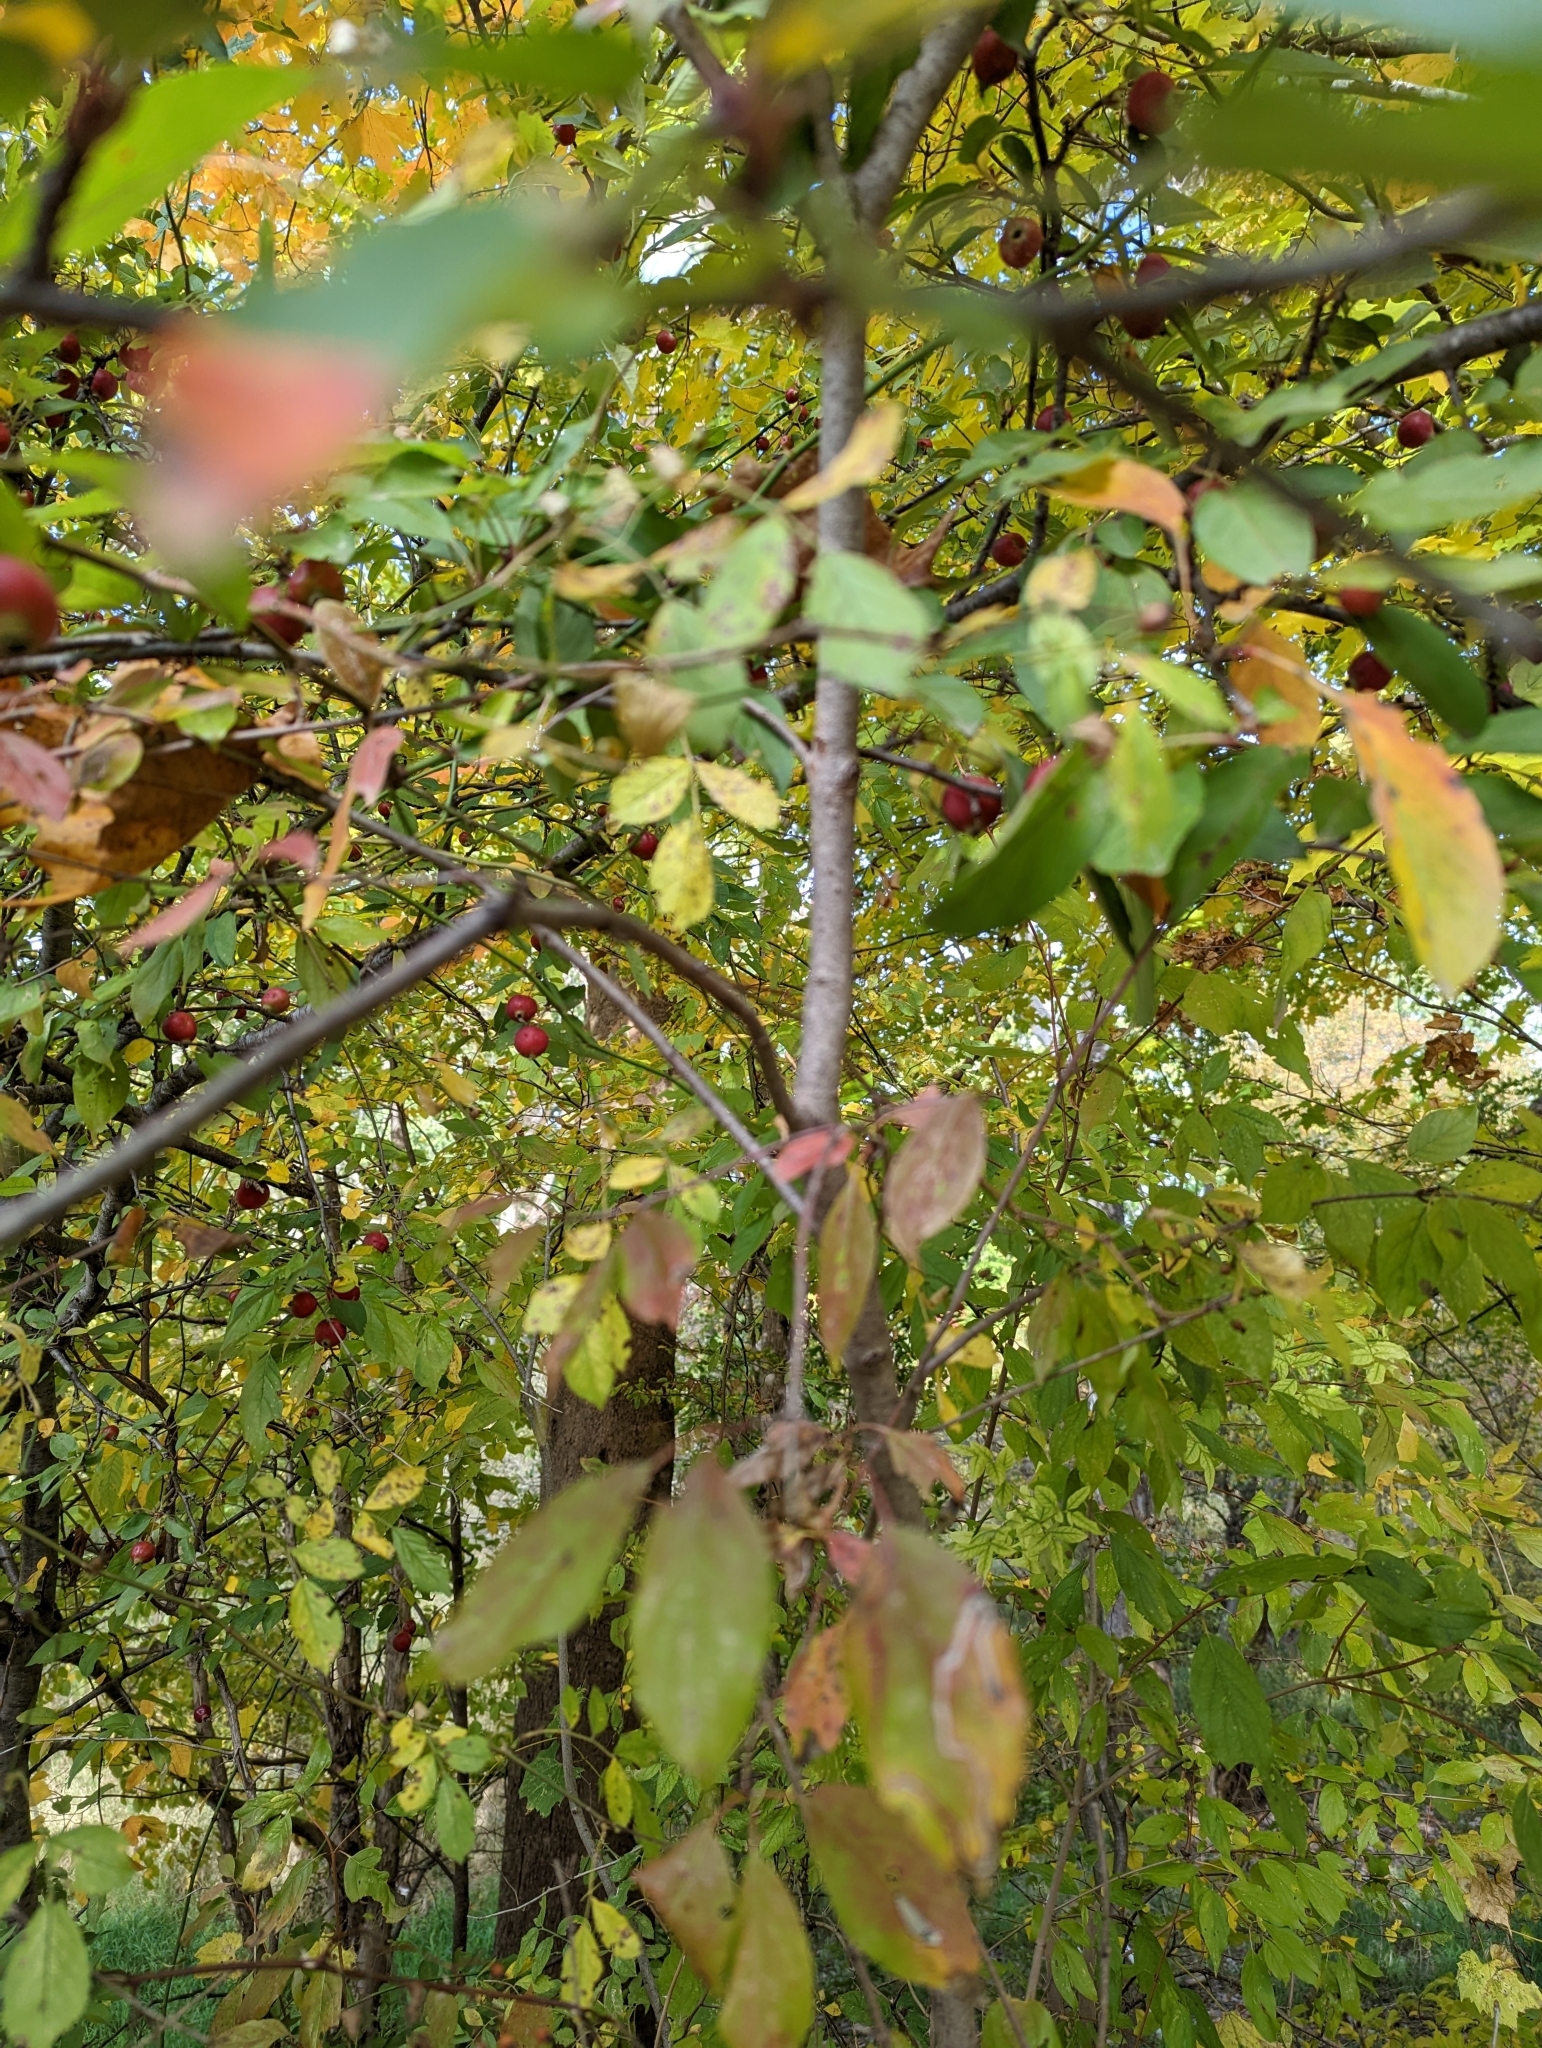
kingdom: Animalia
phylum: Arthropoda
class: Insecta
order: Diptera
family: Agromyzidae
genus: Phytomyza
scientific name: Phytomyza agromyzina
